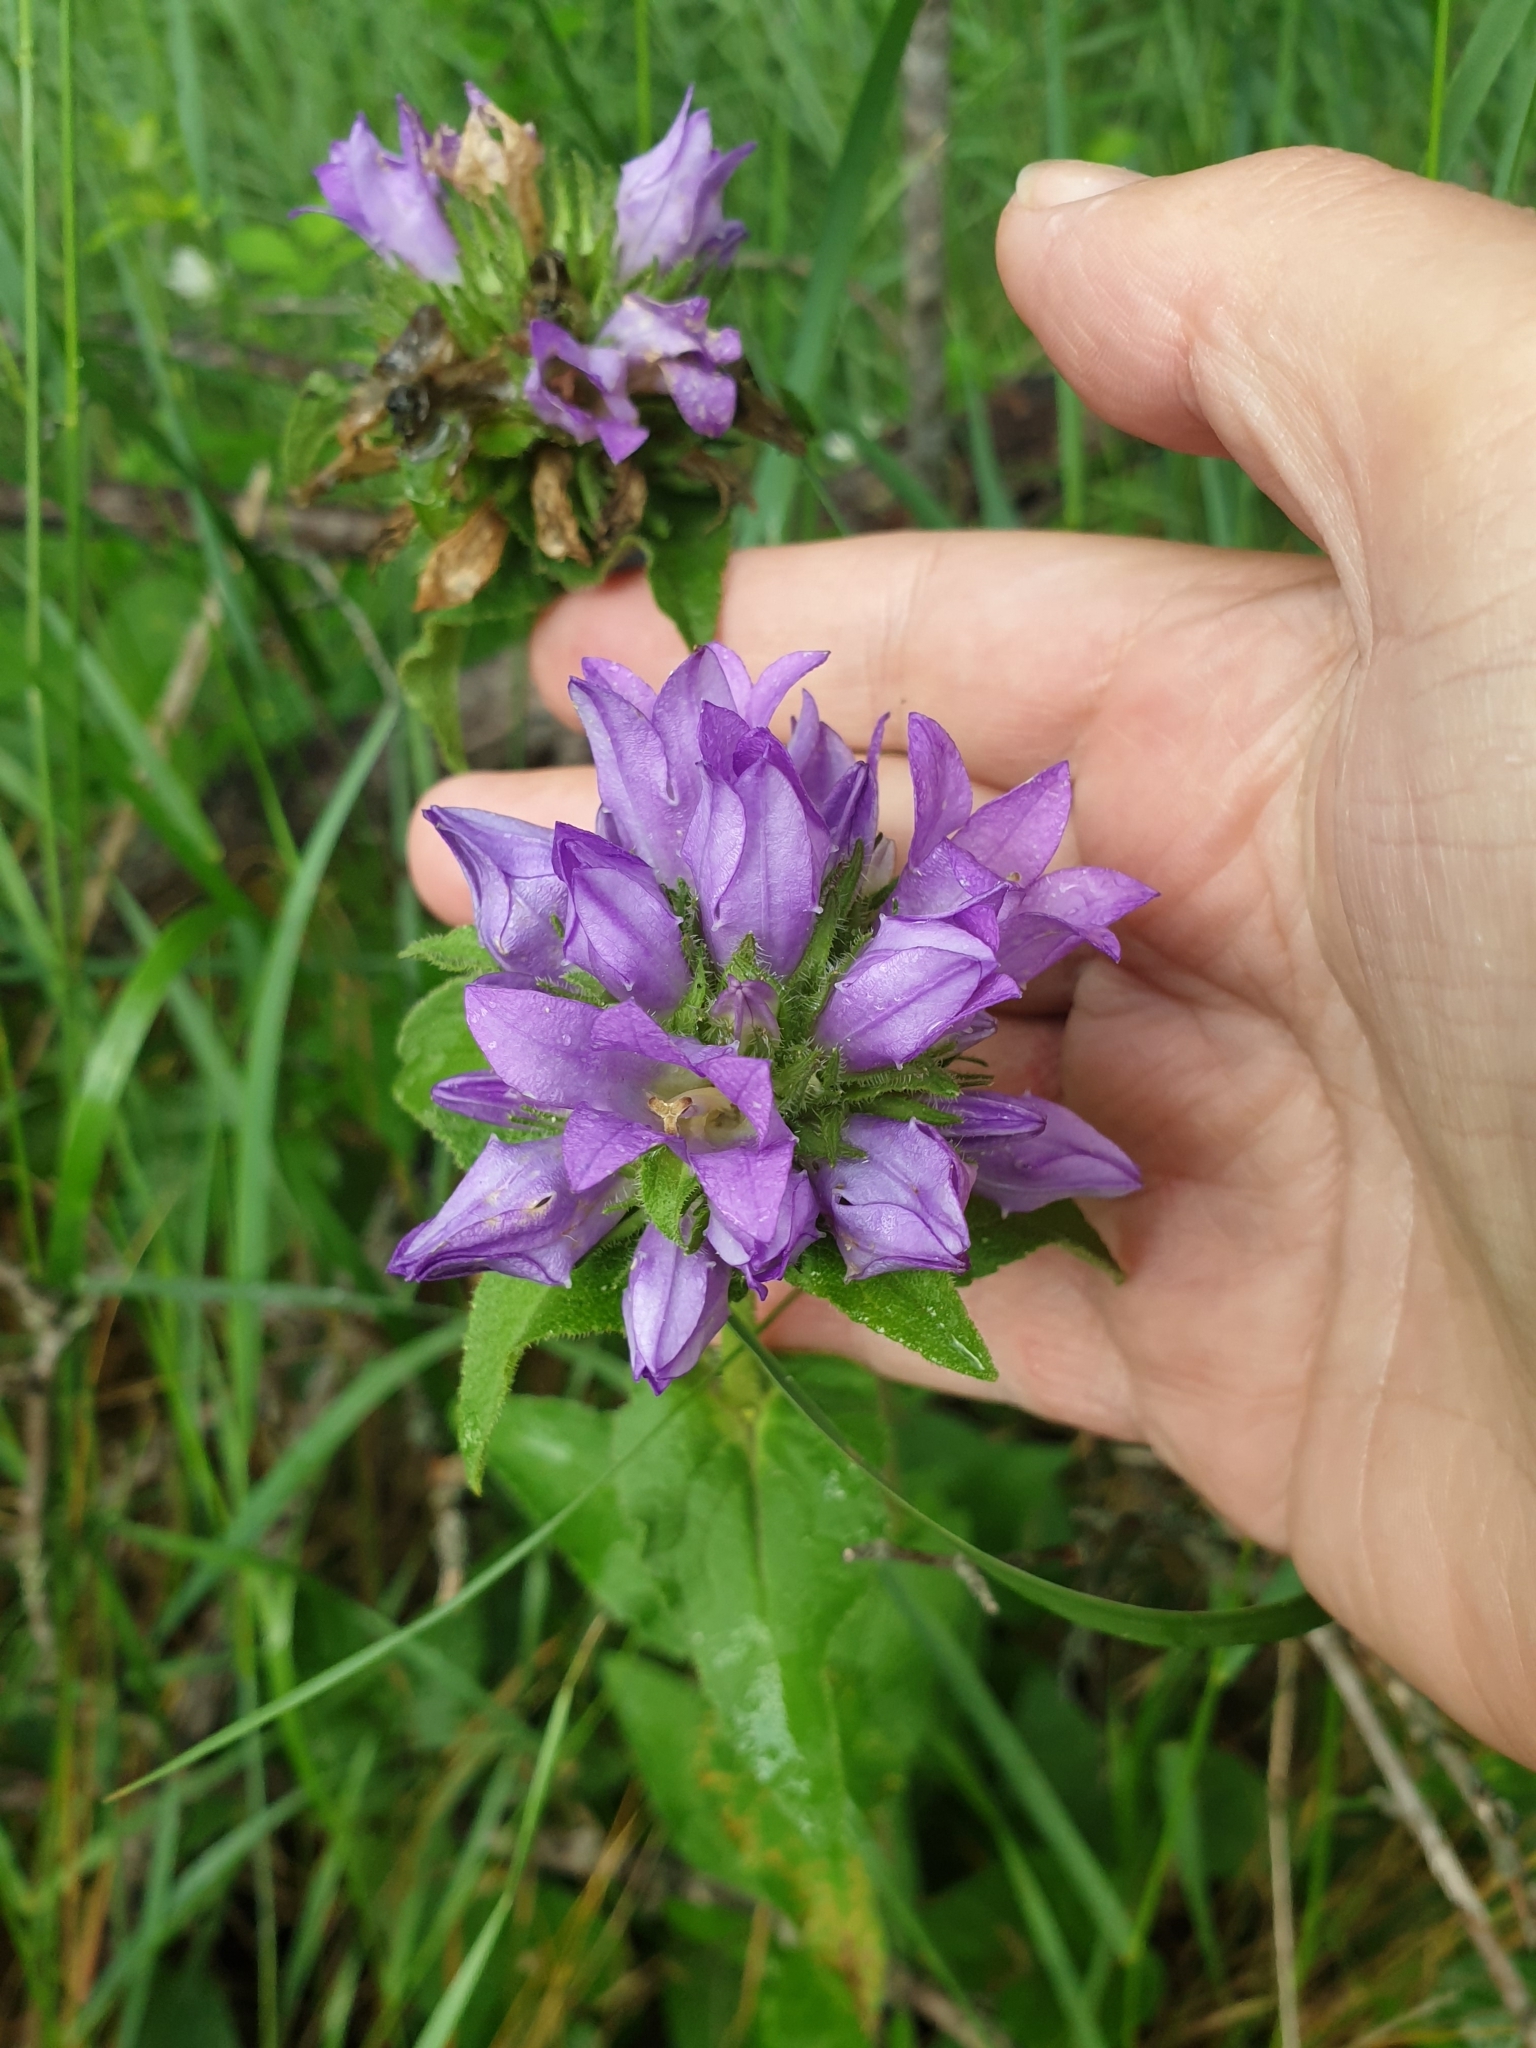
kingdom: Plantae
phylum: Tracheophyta
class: Magnoliopsida
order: Asterales
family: Campanulaceae
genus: Campanula
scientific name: Campanula glomerata
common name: Clustered bellflower
